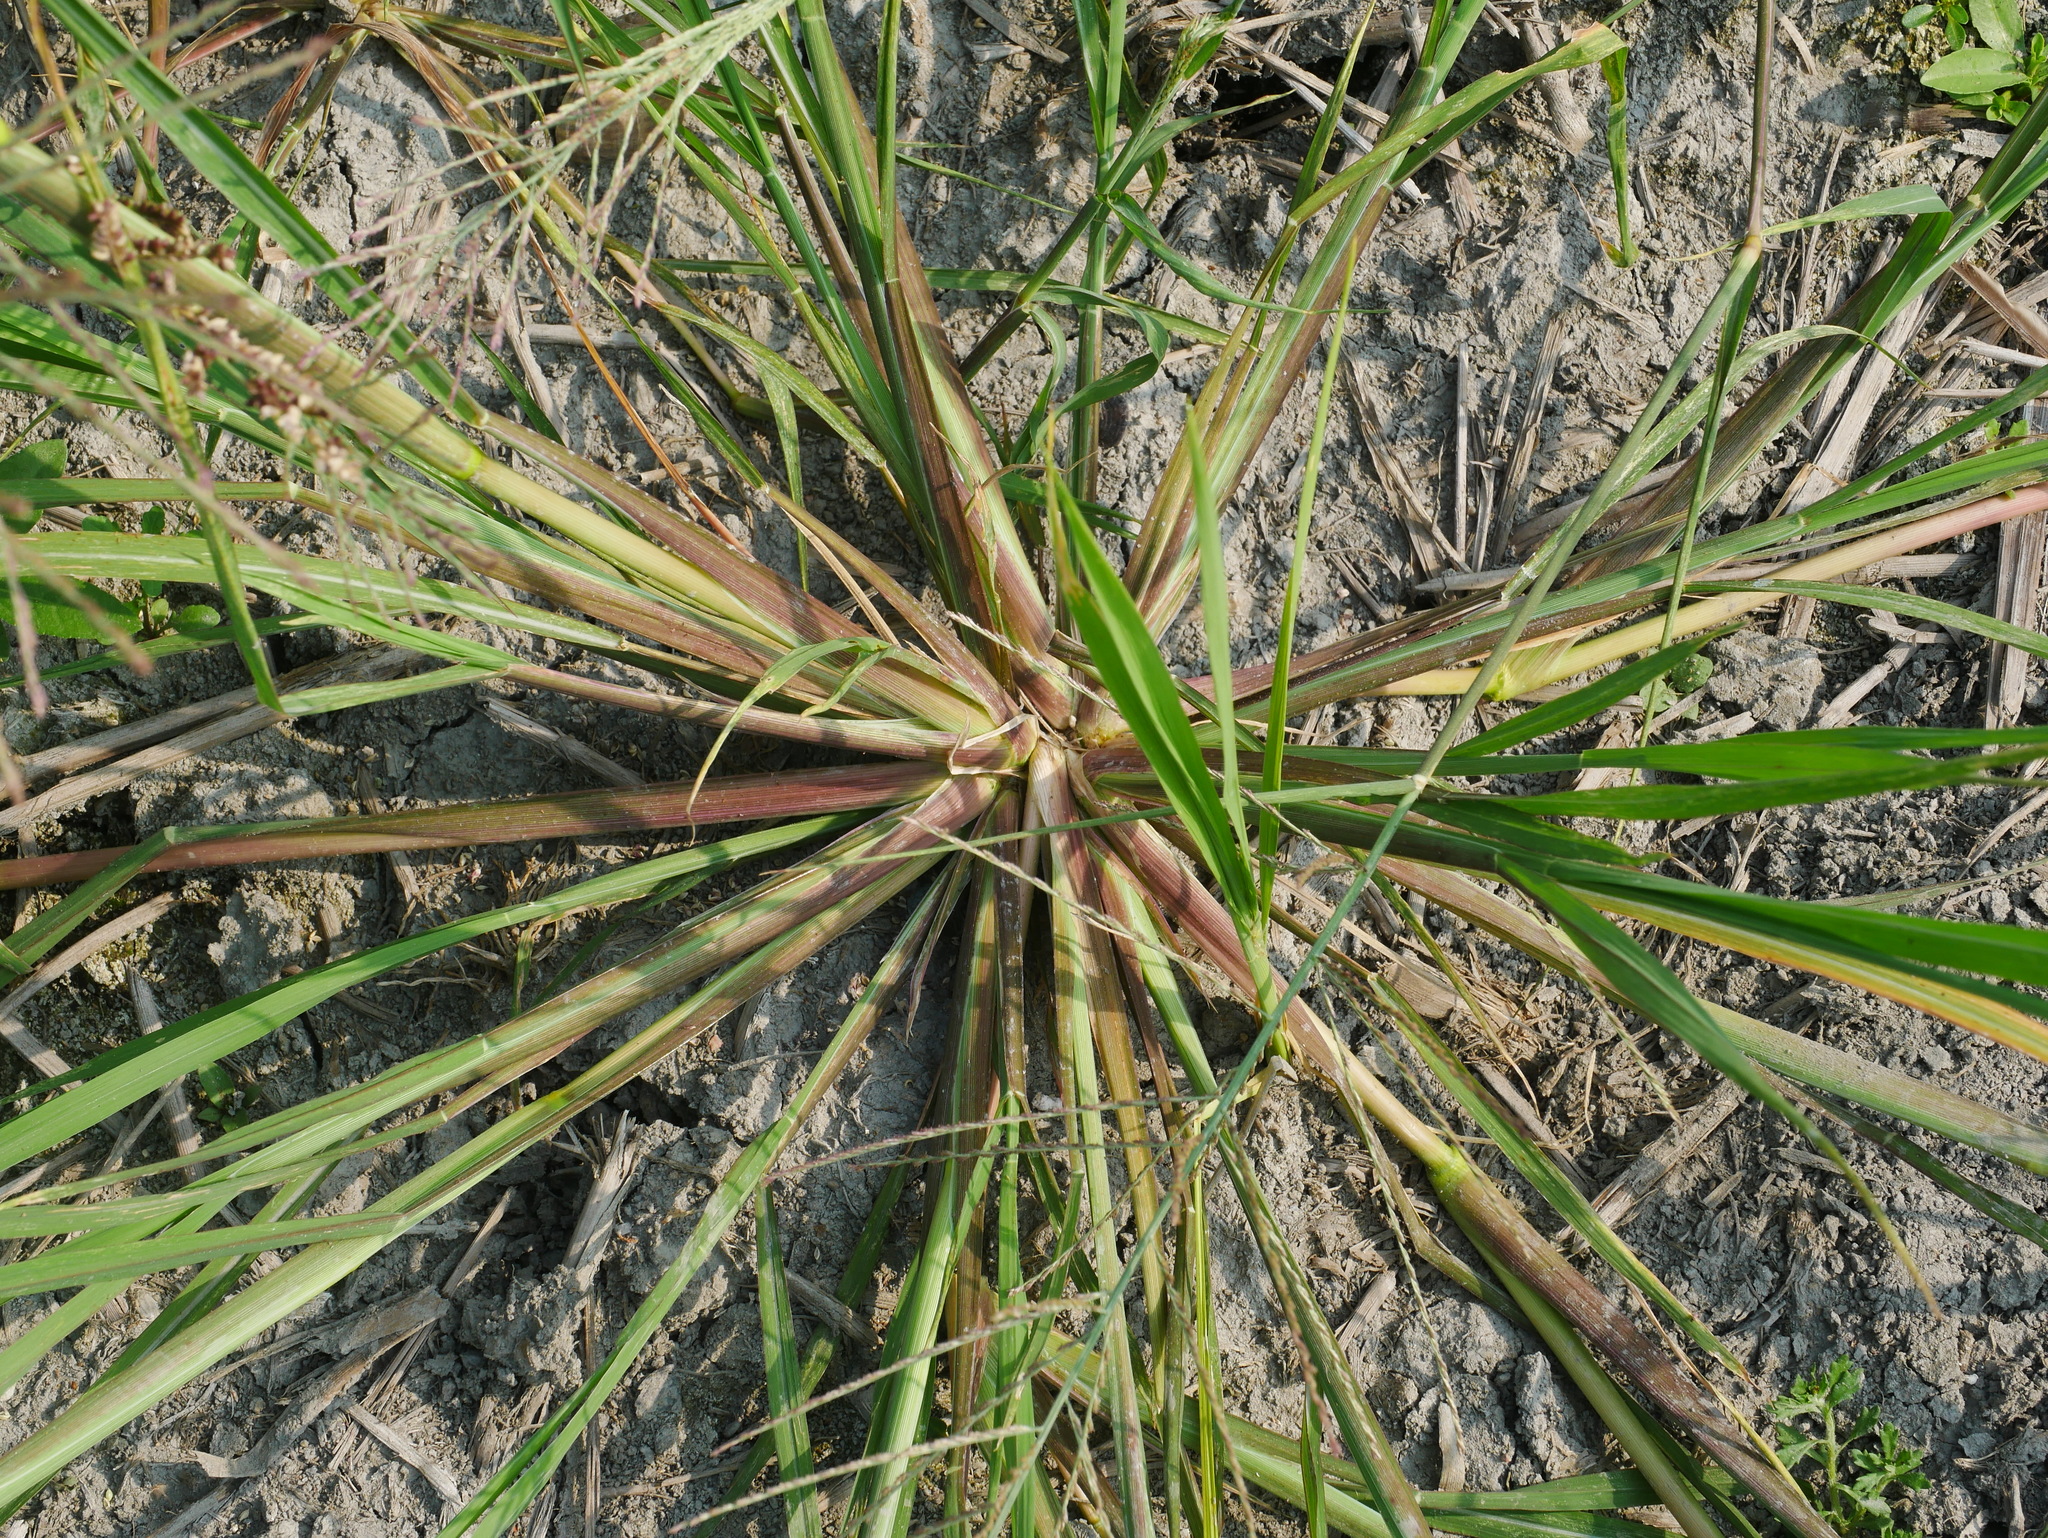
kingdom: Plantae
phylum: Tracheophyta
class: Liliopsida
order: Poales
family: Poaceae
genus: Leptochloa
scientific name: Leptochloa chinensis
